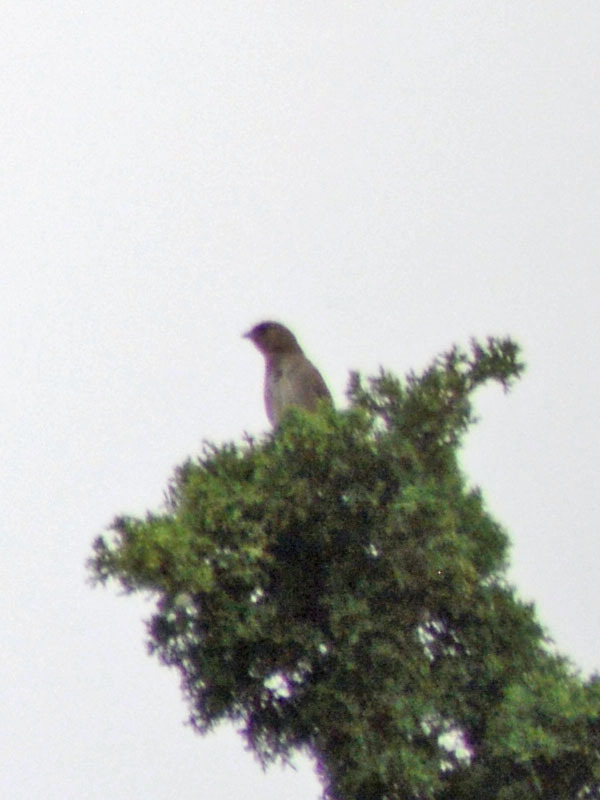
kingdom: Animalia
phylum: Chordata
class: Aves
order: Passeriformes
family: Passerellidae
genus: Melozone
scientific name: Melozone fusca
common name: Canyon towhee
